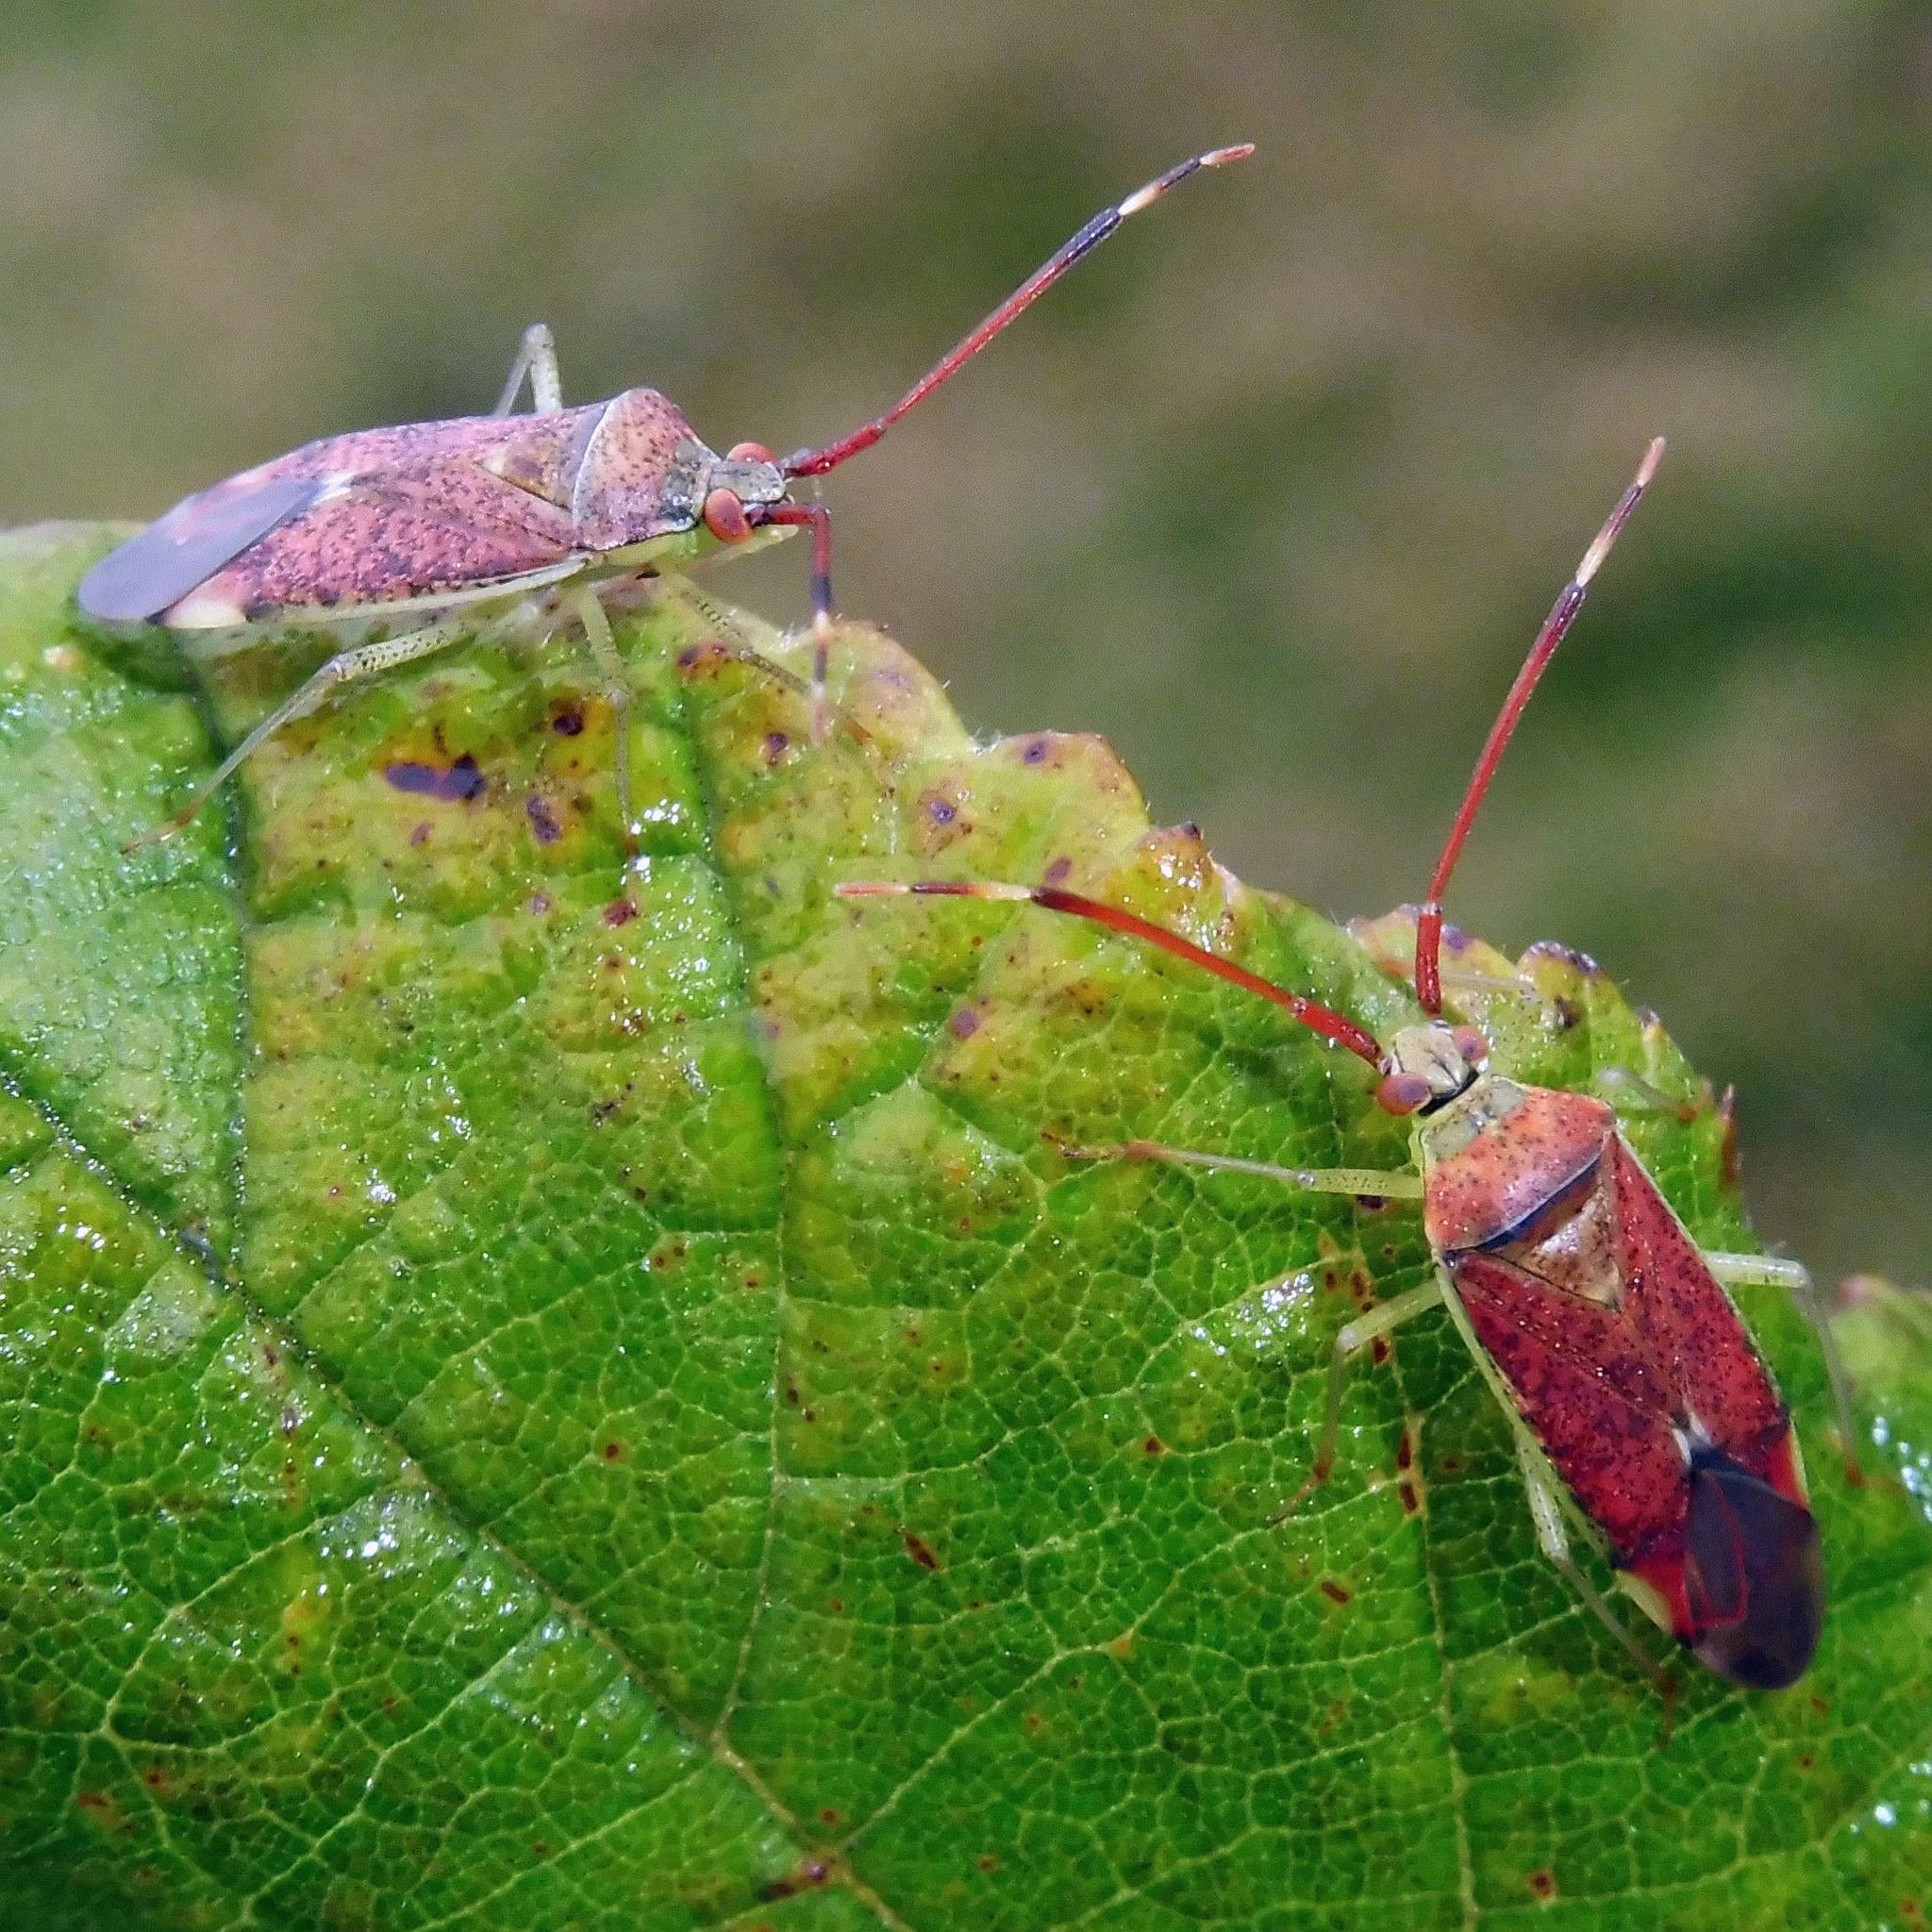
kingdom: Animalia
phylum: Arthropoda
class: Insecta
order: Hemiptera
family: Miridae
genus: Pantilius
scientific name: Pantilius tunicatus
